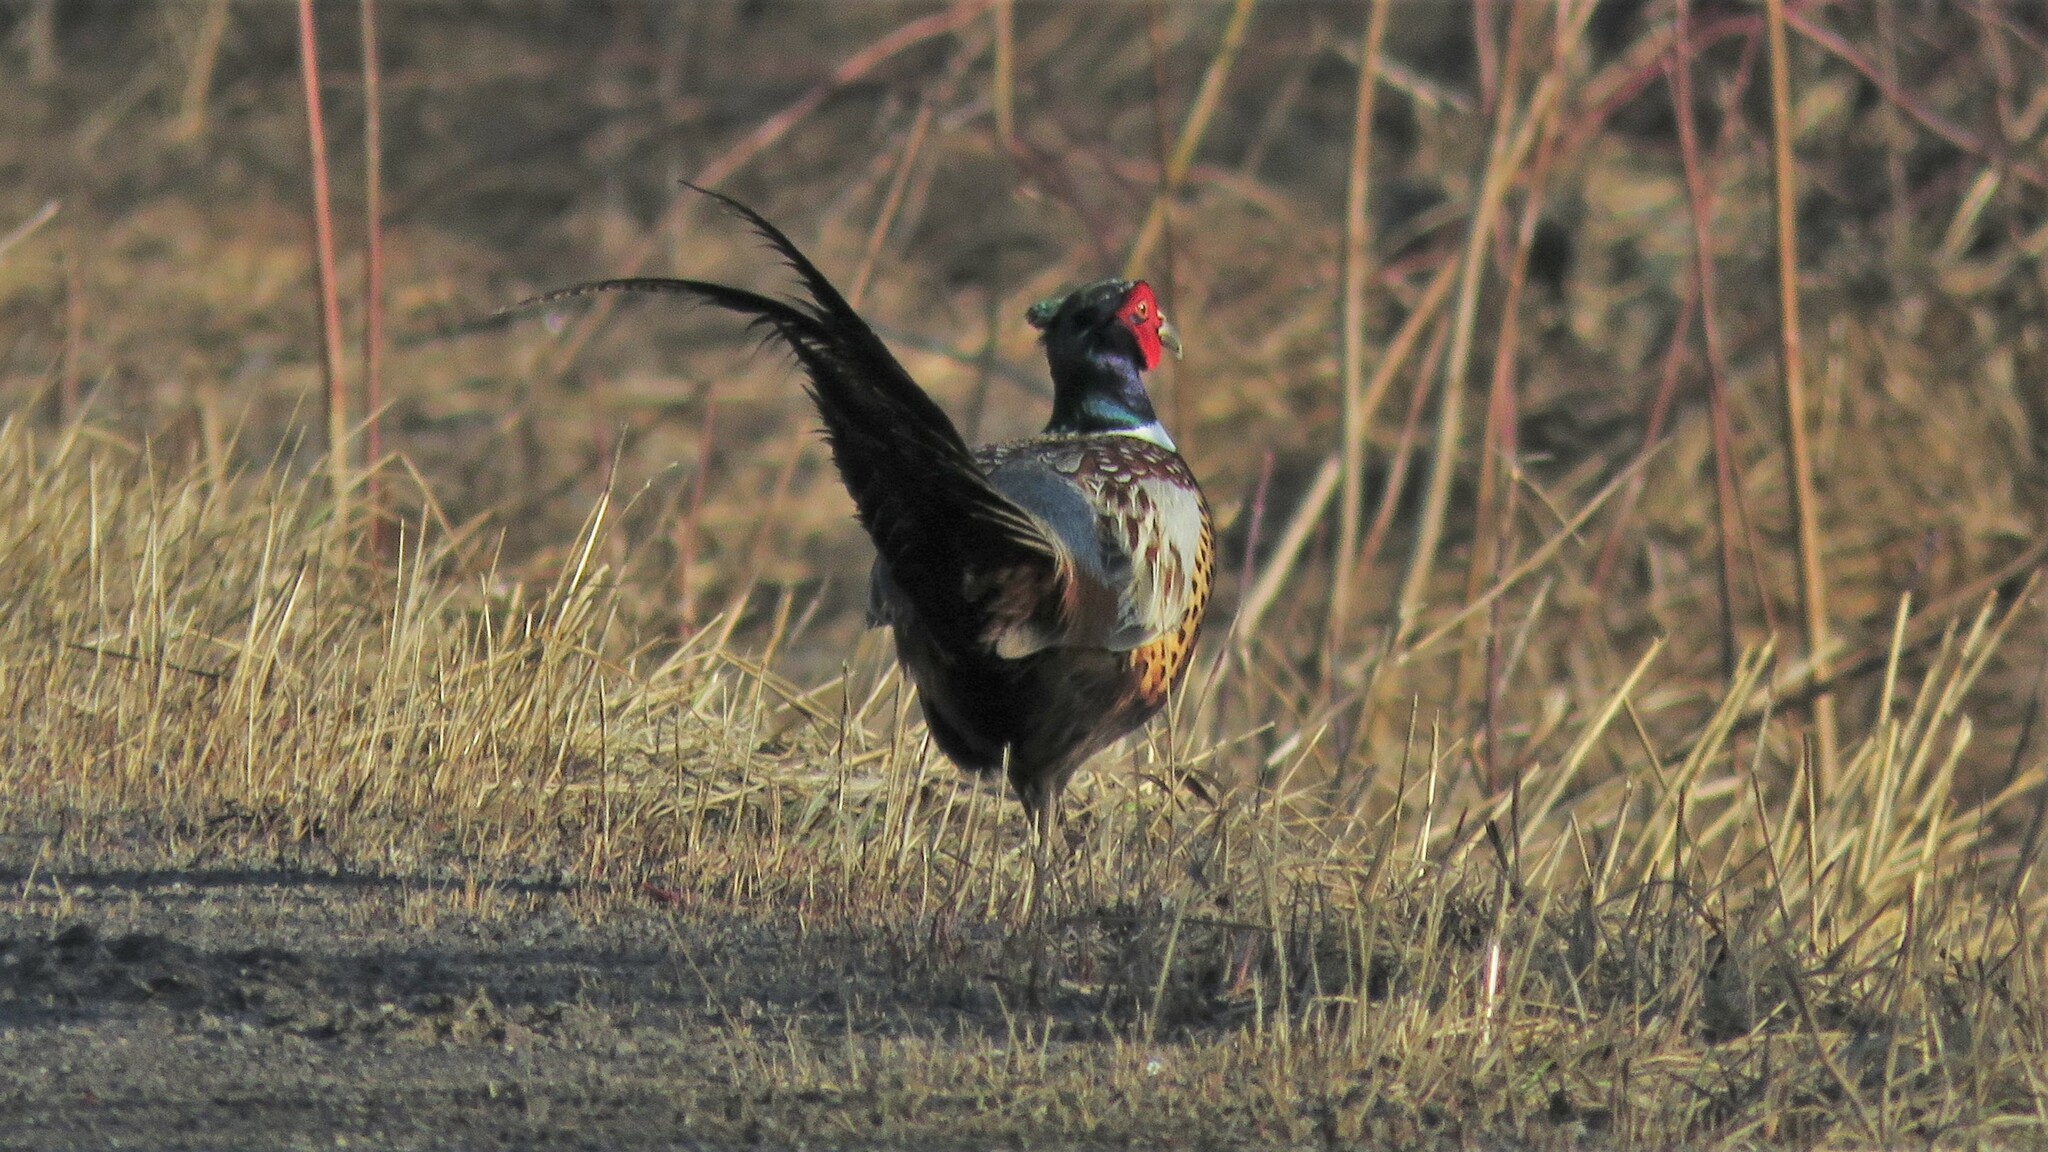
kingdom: Animalia
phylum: Chordata
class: Aves
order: Galliformes
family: Phasianidae
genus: Phasianus
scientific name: Phasianus colchicus
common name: Common pheasant
